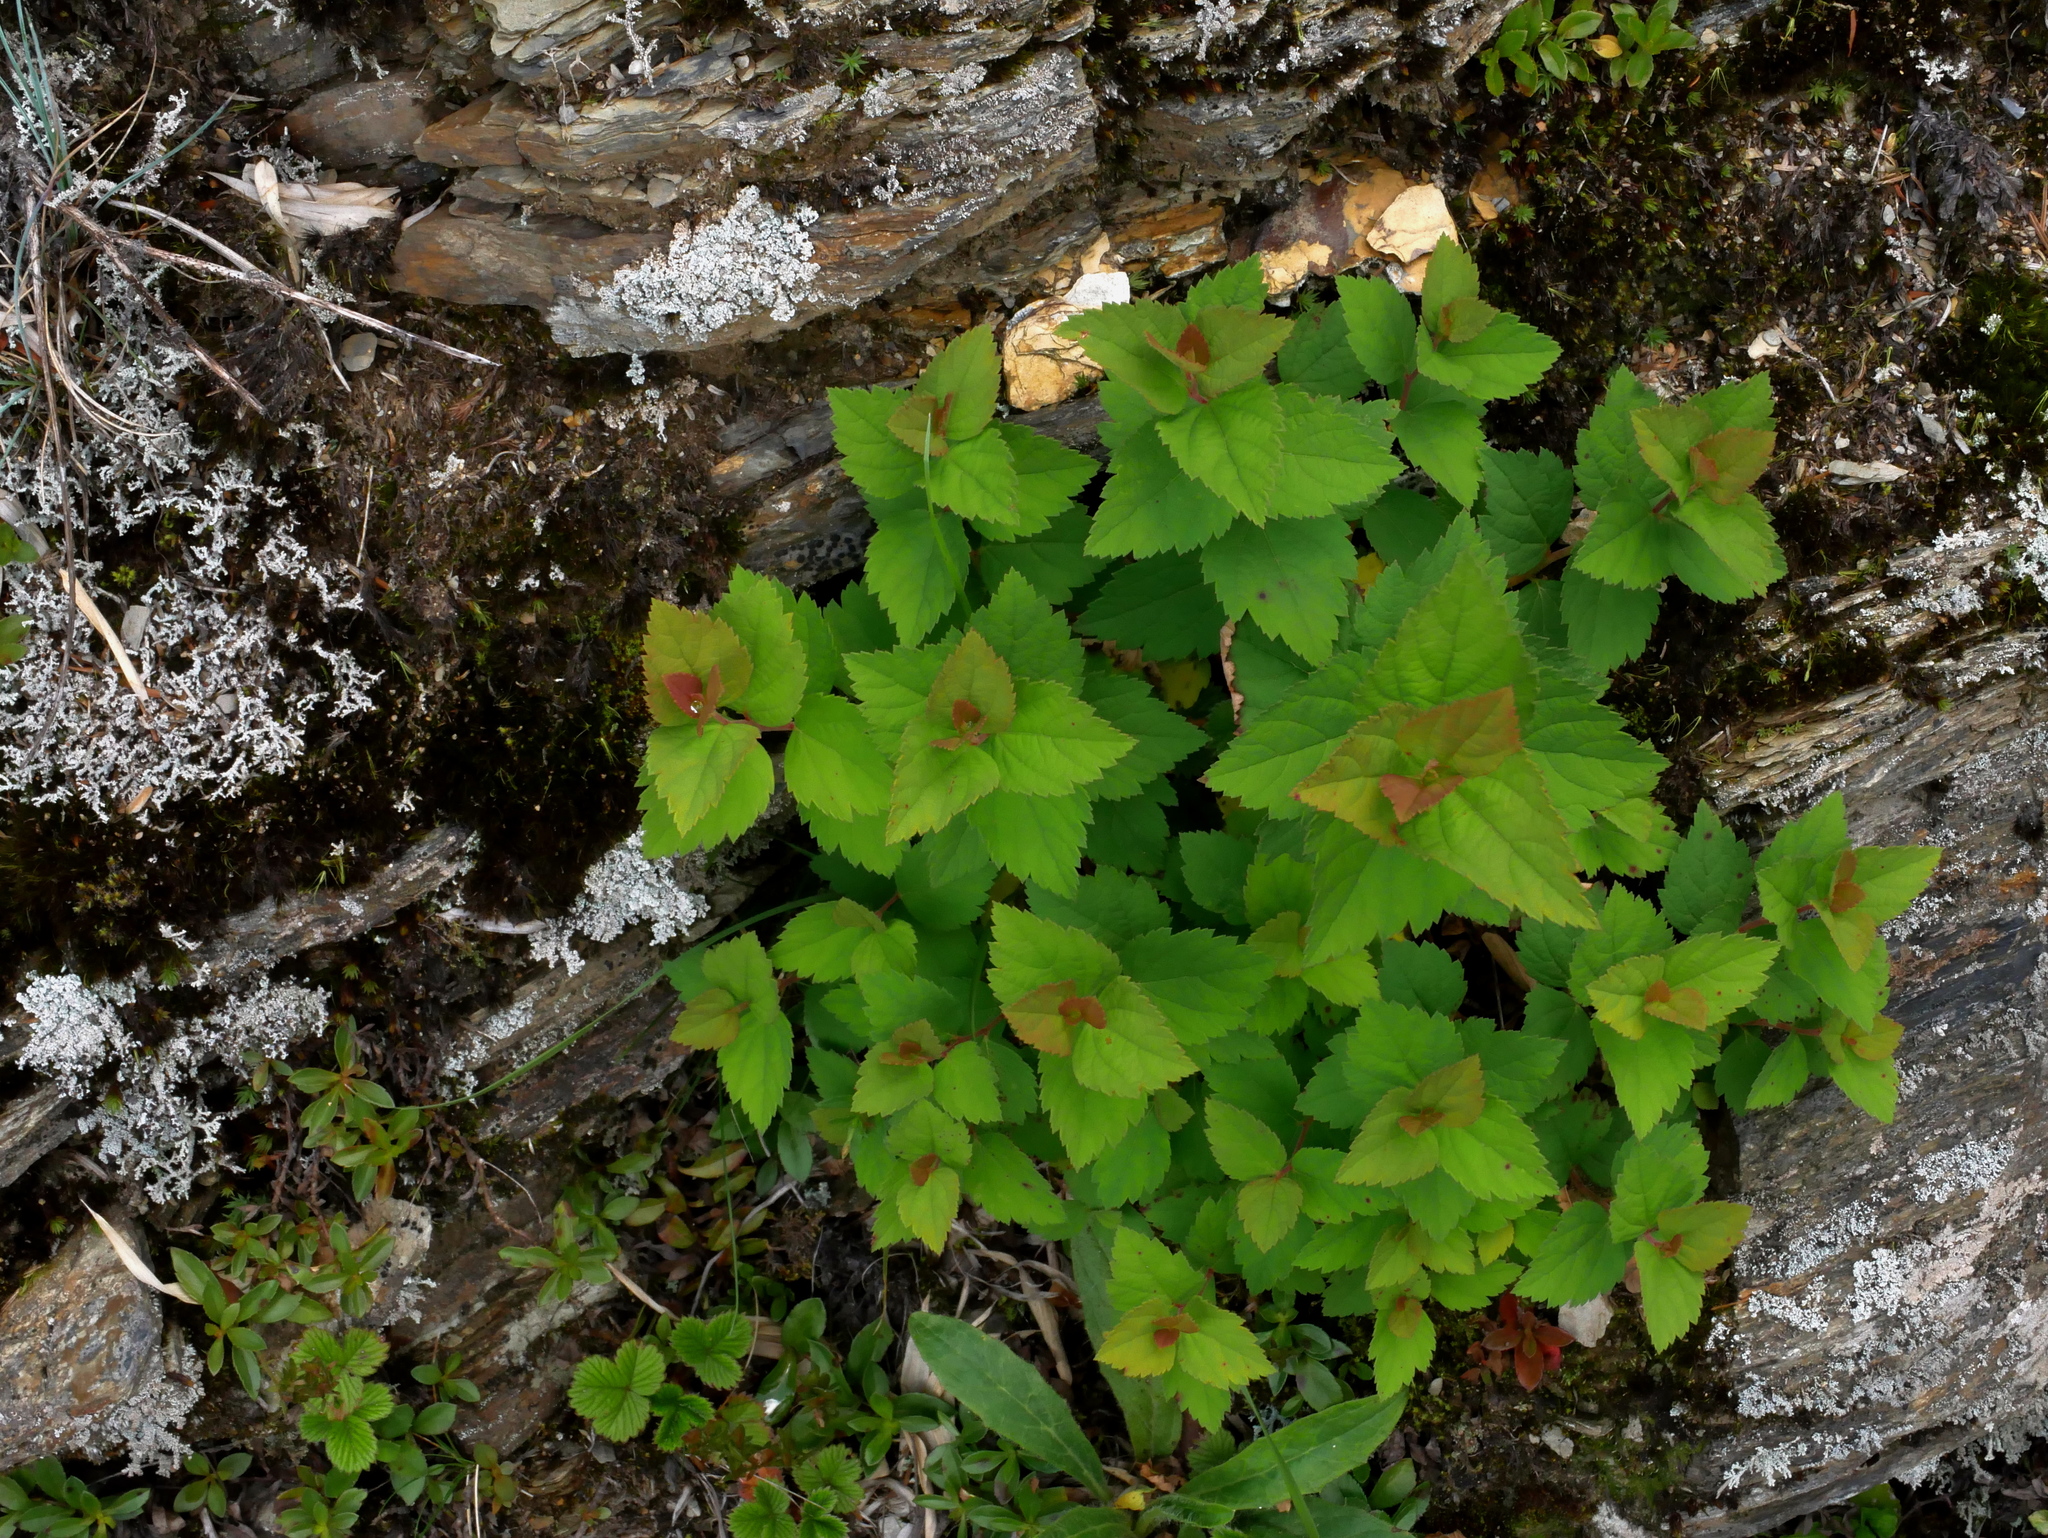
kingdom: Plantae
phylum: Tracheophyta
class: Magnoliopsida
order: Rosales
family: Rosaceae
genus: Spiraea
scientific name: Spiraea morrisonicola
